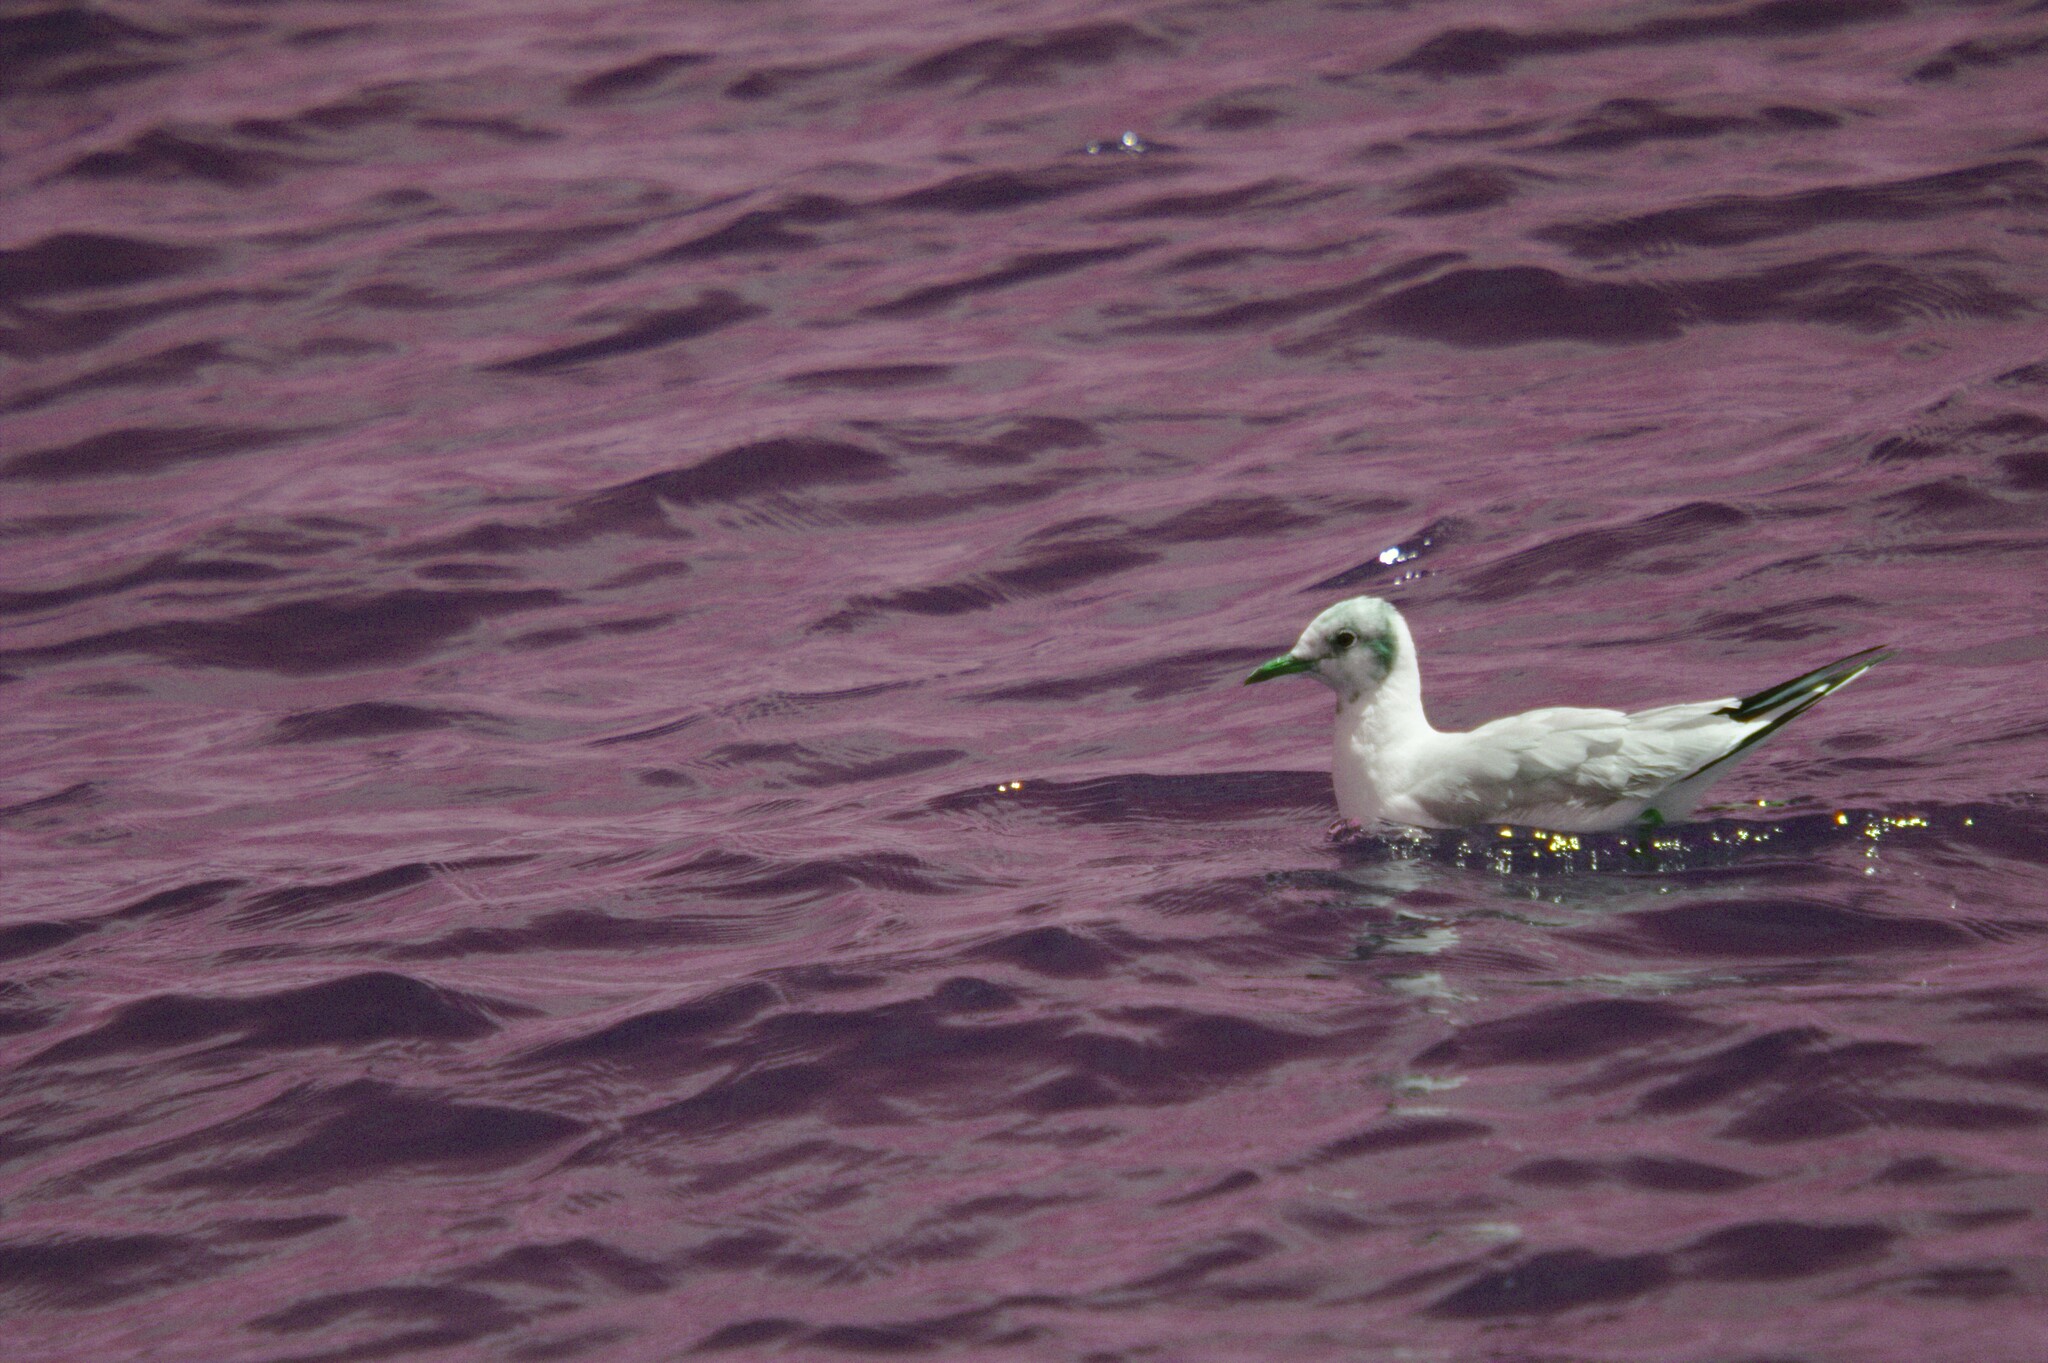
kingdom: Animalia
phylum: Chordata
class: Aves
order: Charadriiformes
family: Laridae
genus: Chroicocephalus
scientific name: Chroicocephalus ridibundus
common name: Black-headed gull
